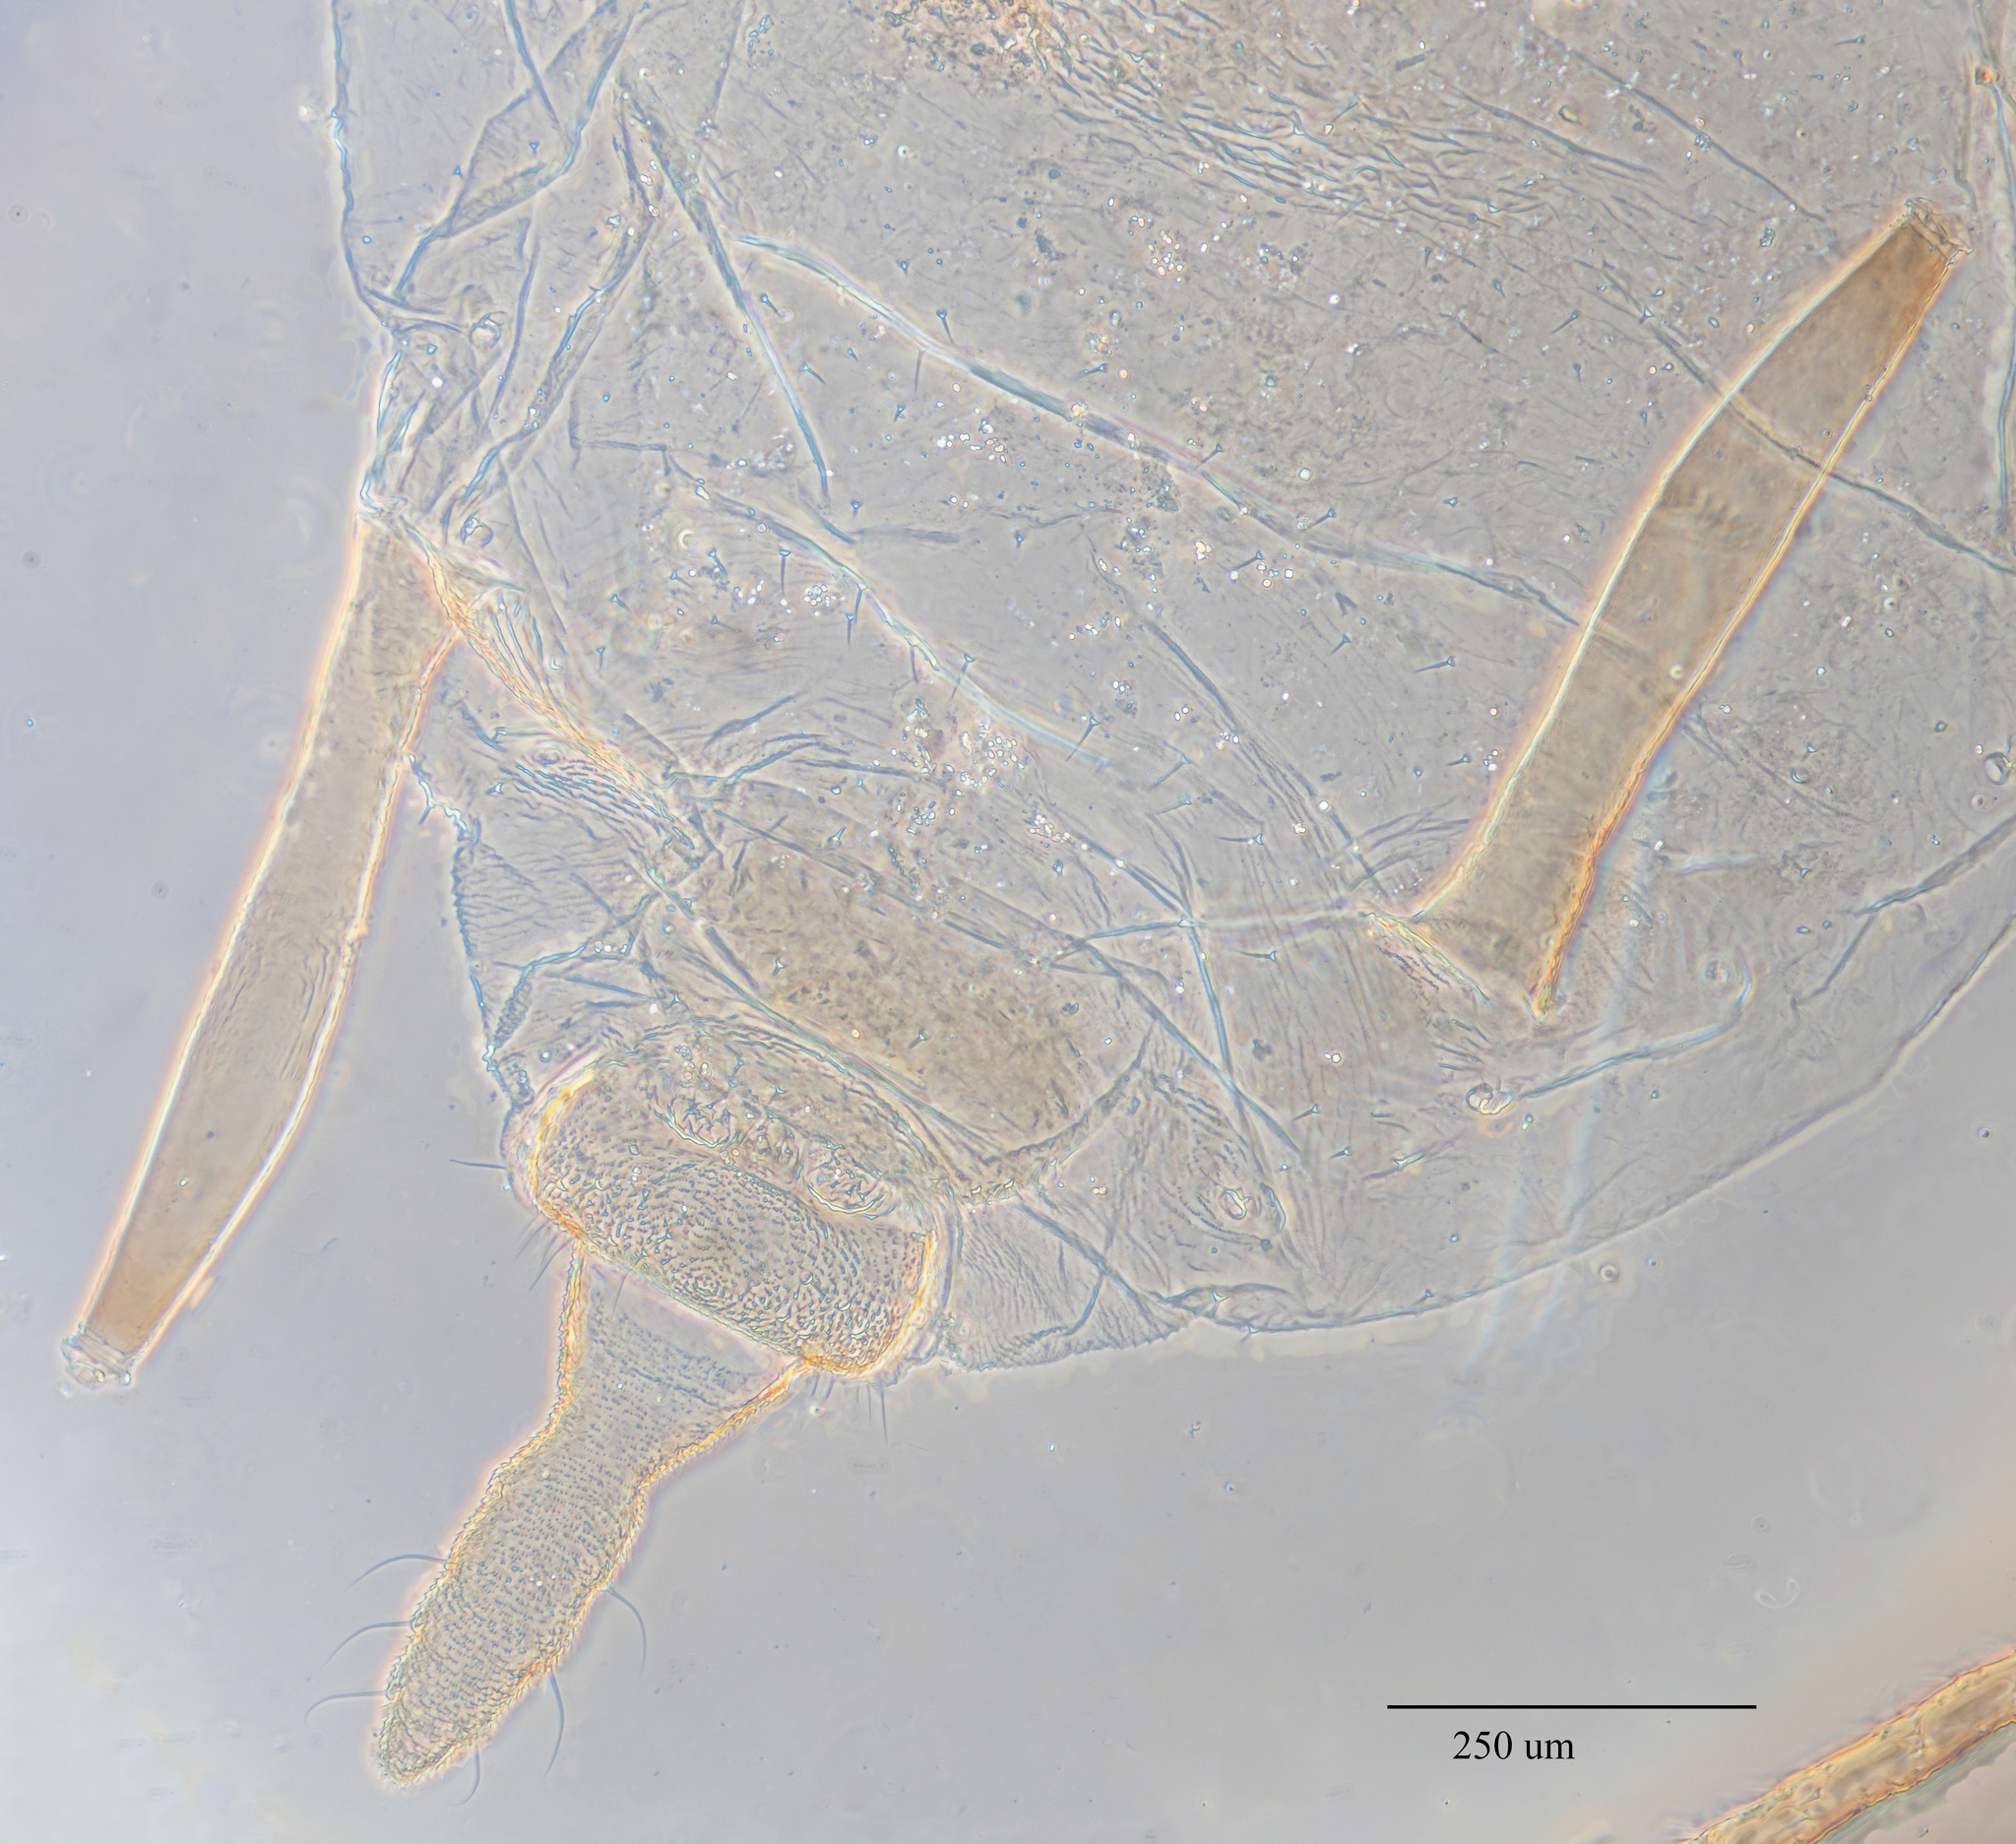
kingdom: Animalia
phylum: Arthropoda
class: Insecta
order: Hemiptera
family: Aphididae
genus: Hyperomyzus
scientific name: Hyperomyzus lactucae
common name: Sow thistle aphid
